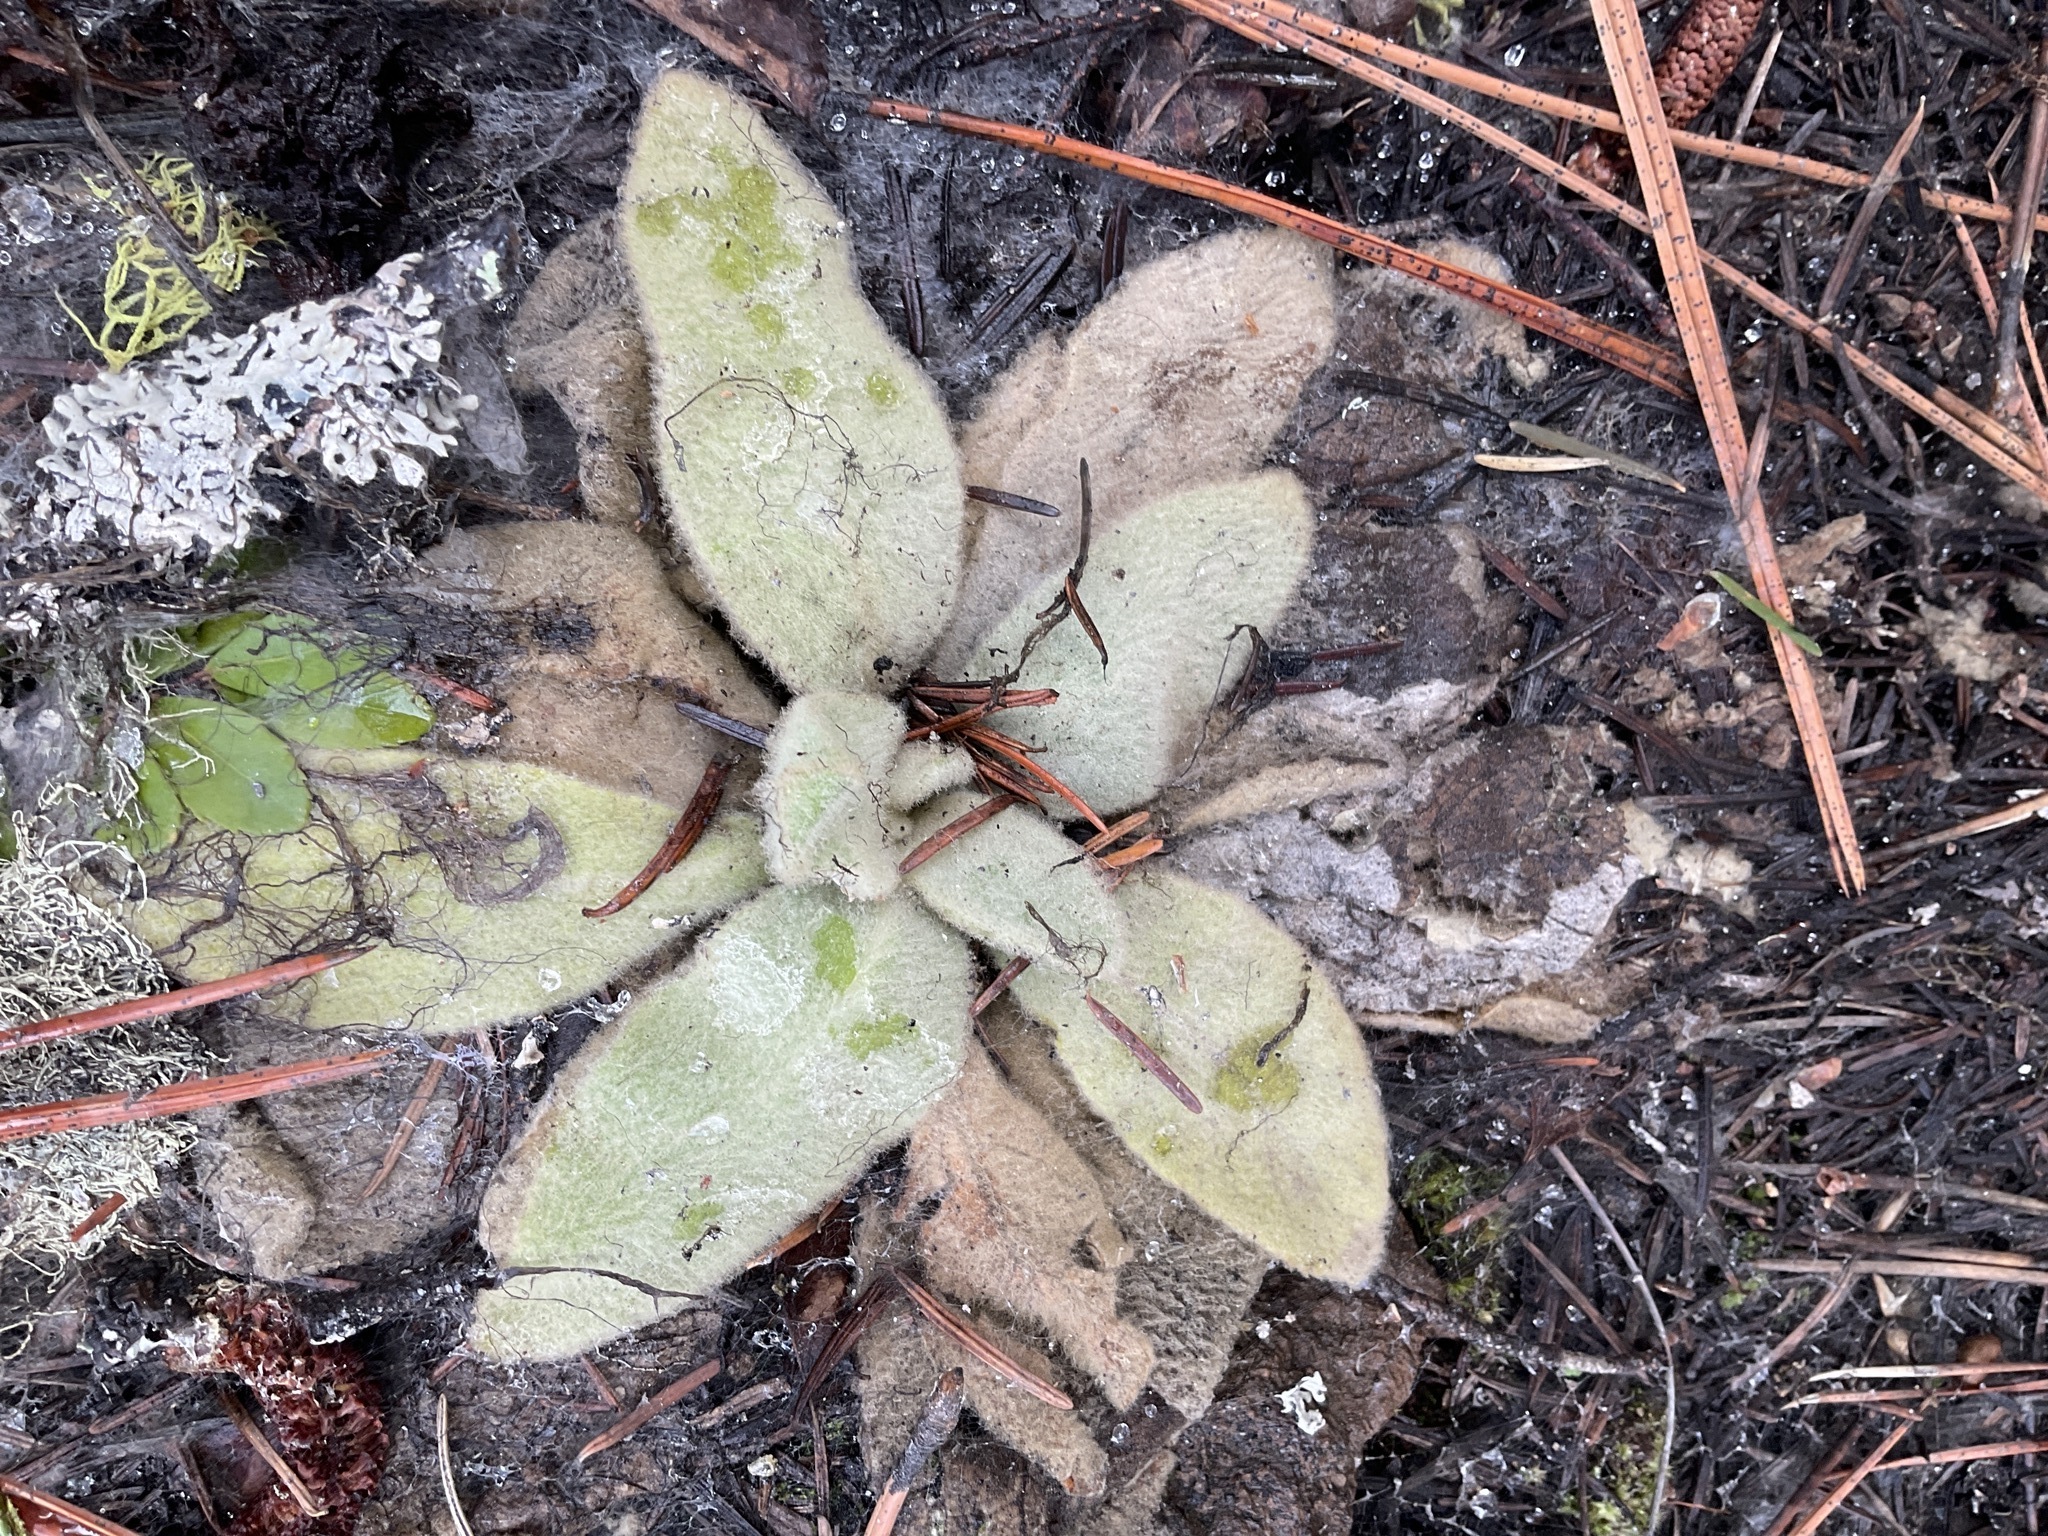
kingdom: Plantae
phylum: Tracheophyta
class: Magnoliopsida
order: Lamiales
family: Scrophulariaceae
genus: Verbascum
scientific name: Verbascum thapsus
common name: Common mullein
